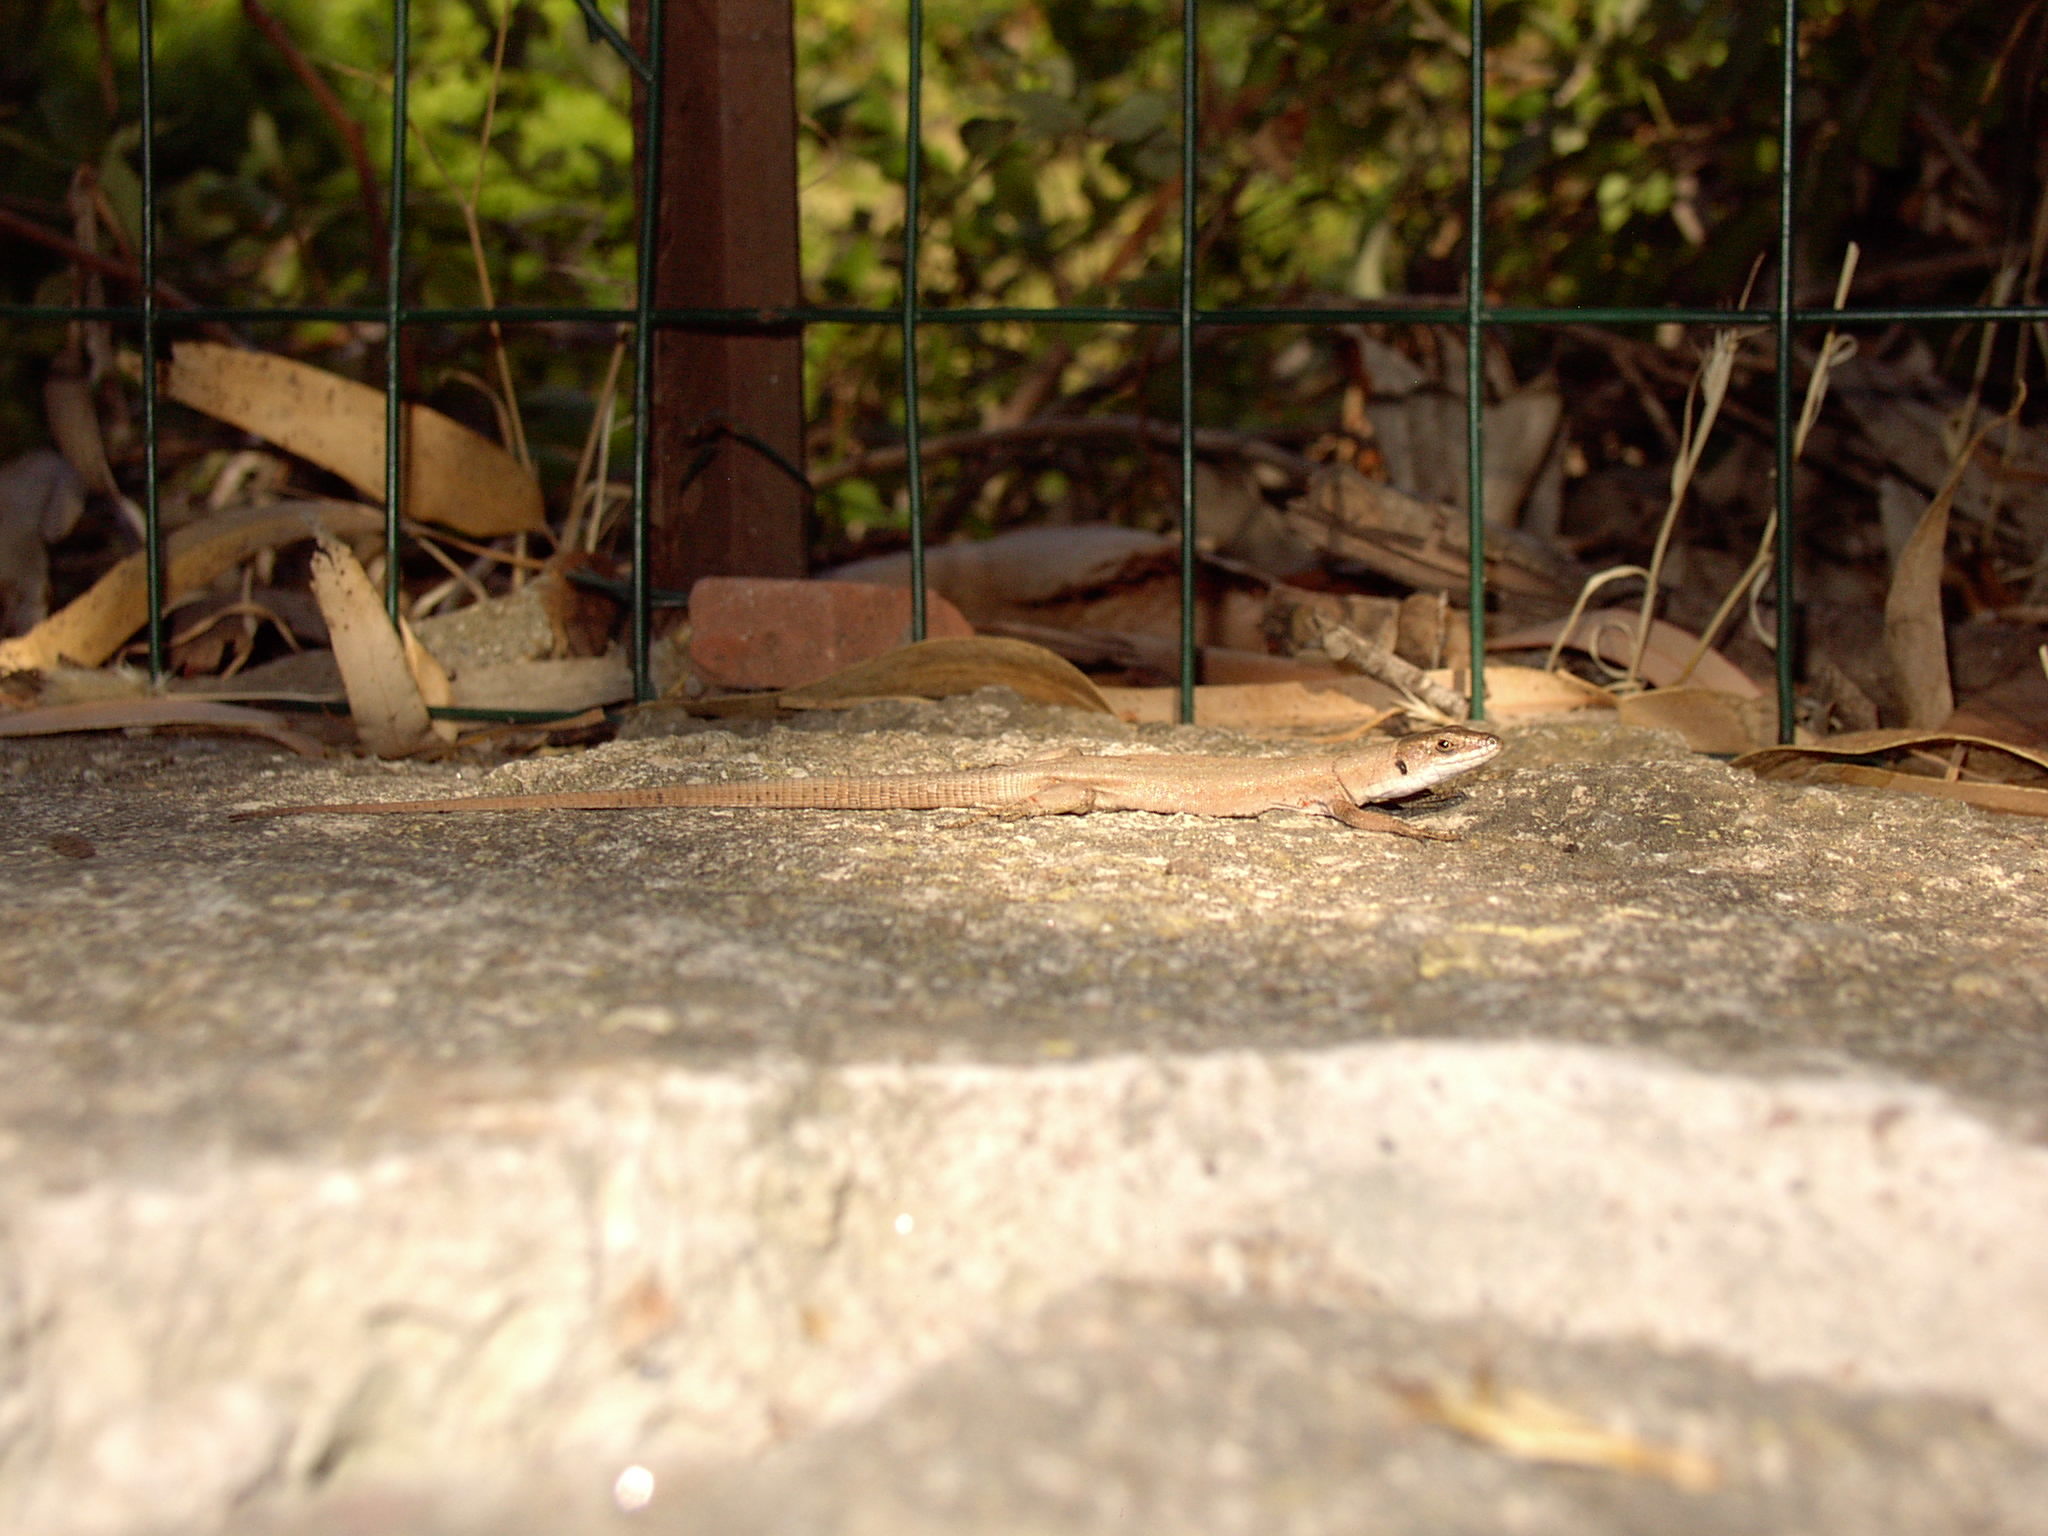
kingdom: Animalia
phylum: Chordata
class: Squamata
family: Lacertidae
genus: Podarcis
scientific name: Podarcis siculus
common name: Italian wall lizard
